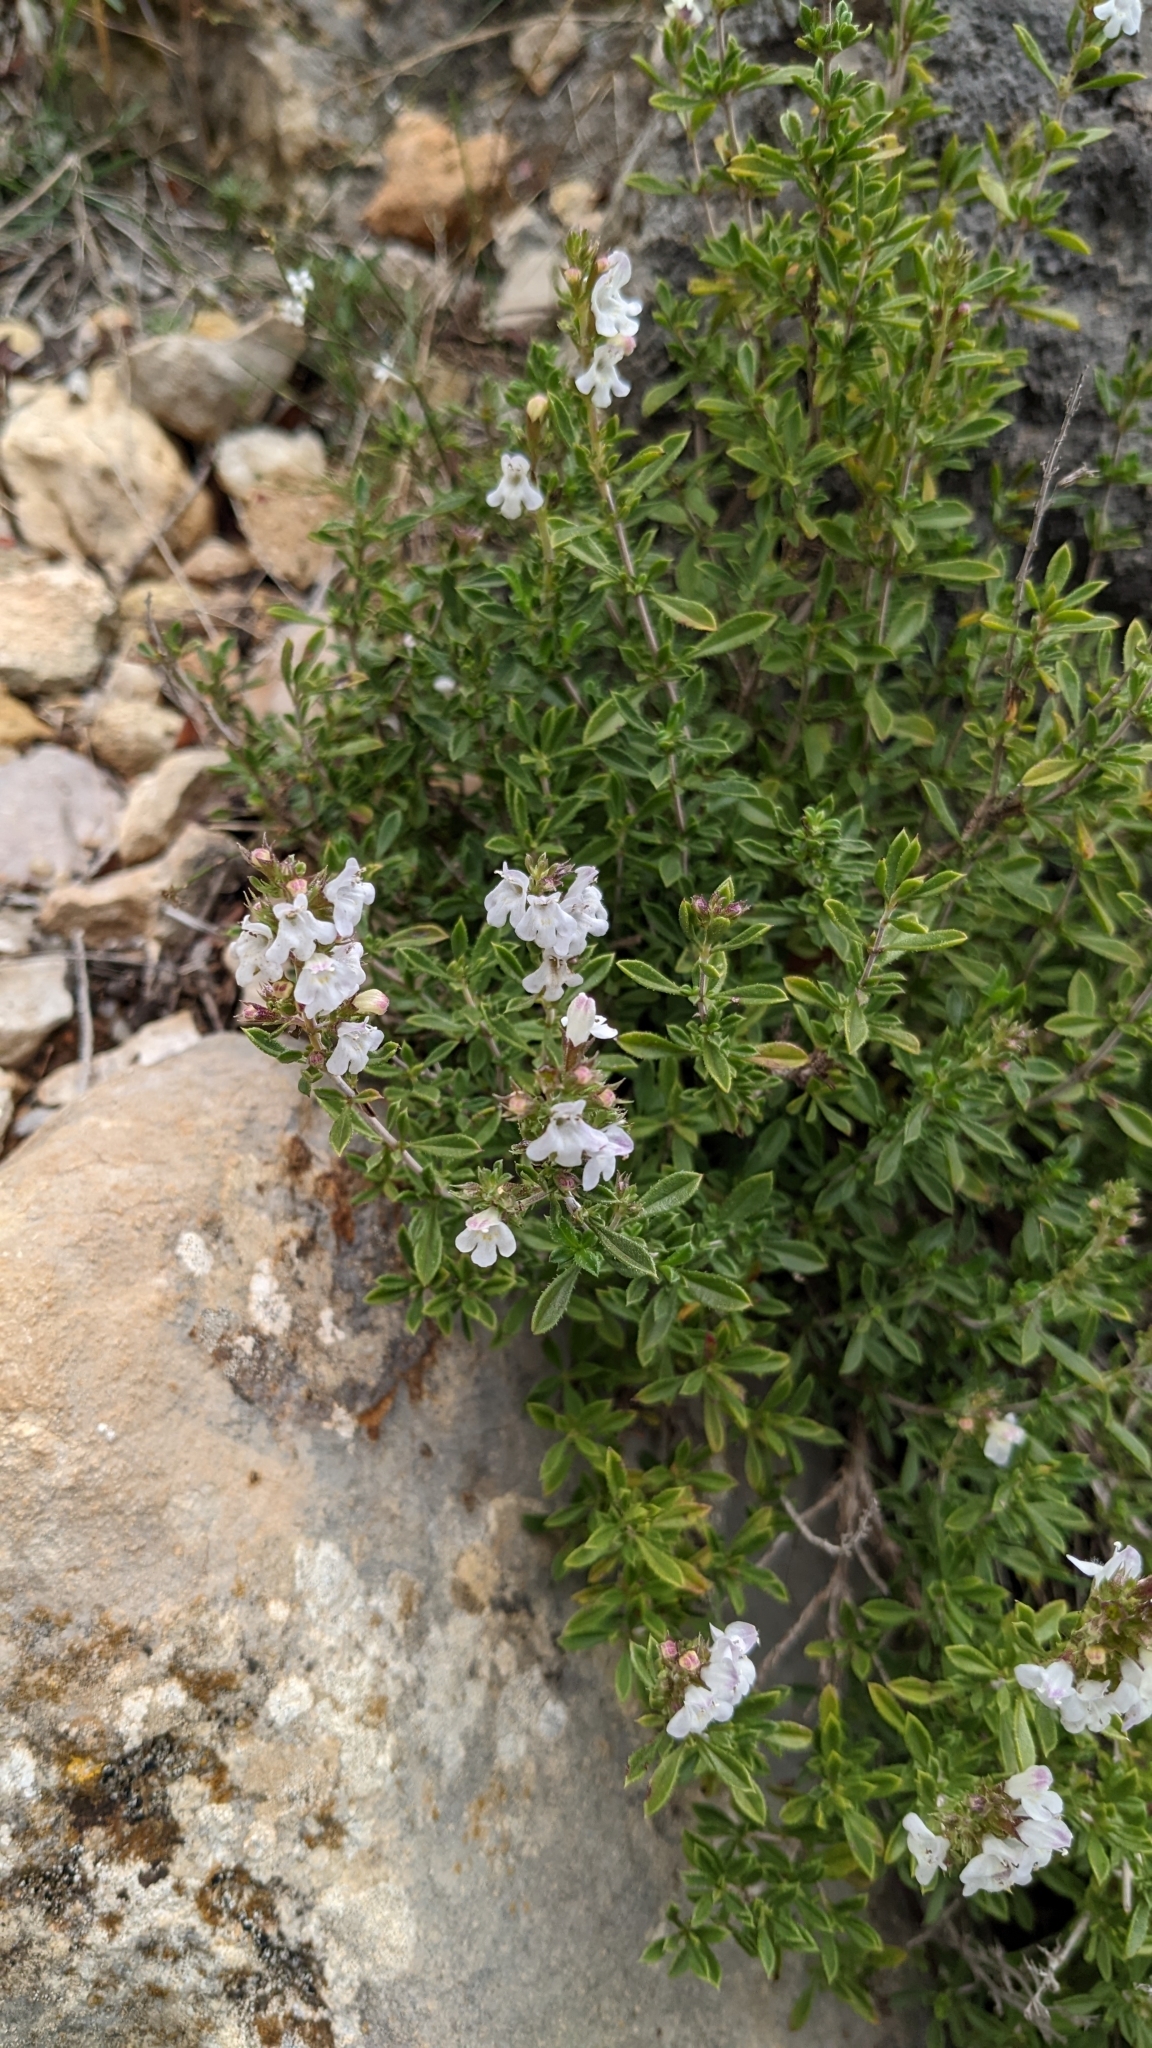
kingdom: Plantae
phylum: Tracheophyta
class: Magnoliopsida
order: Lamiales
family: Lamiaceae
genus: Satureja
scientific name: Satureja montana
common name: Winter savory
